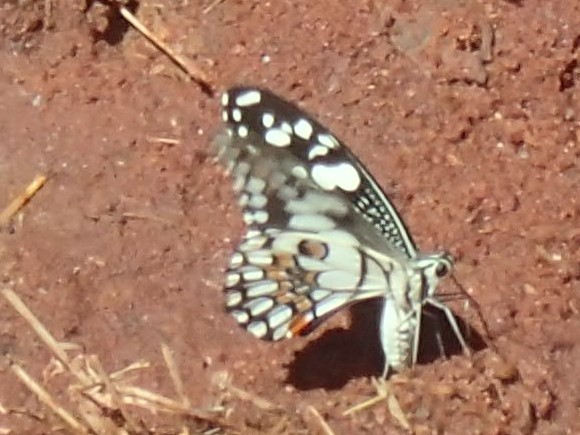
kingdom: Animalia
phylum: Arthropoda
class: Insecta
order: Lepidoptera
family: Papilionidae
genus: Papilio
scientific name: Papilio demoleus
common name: Lime butterfly
